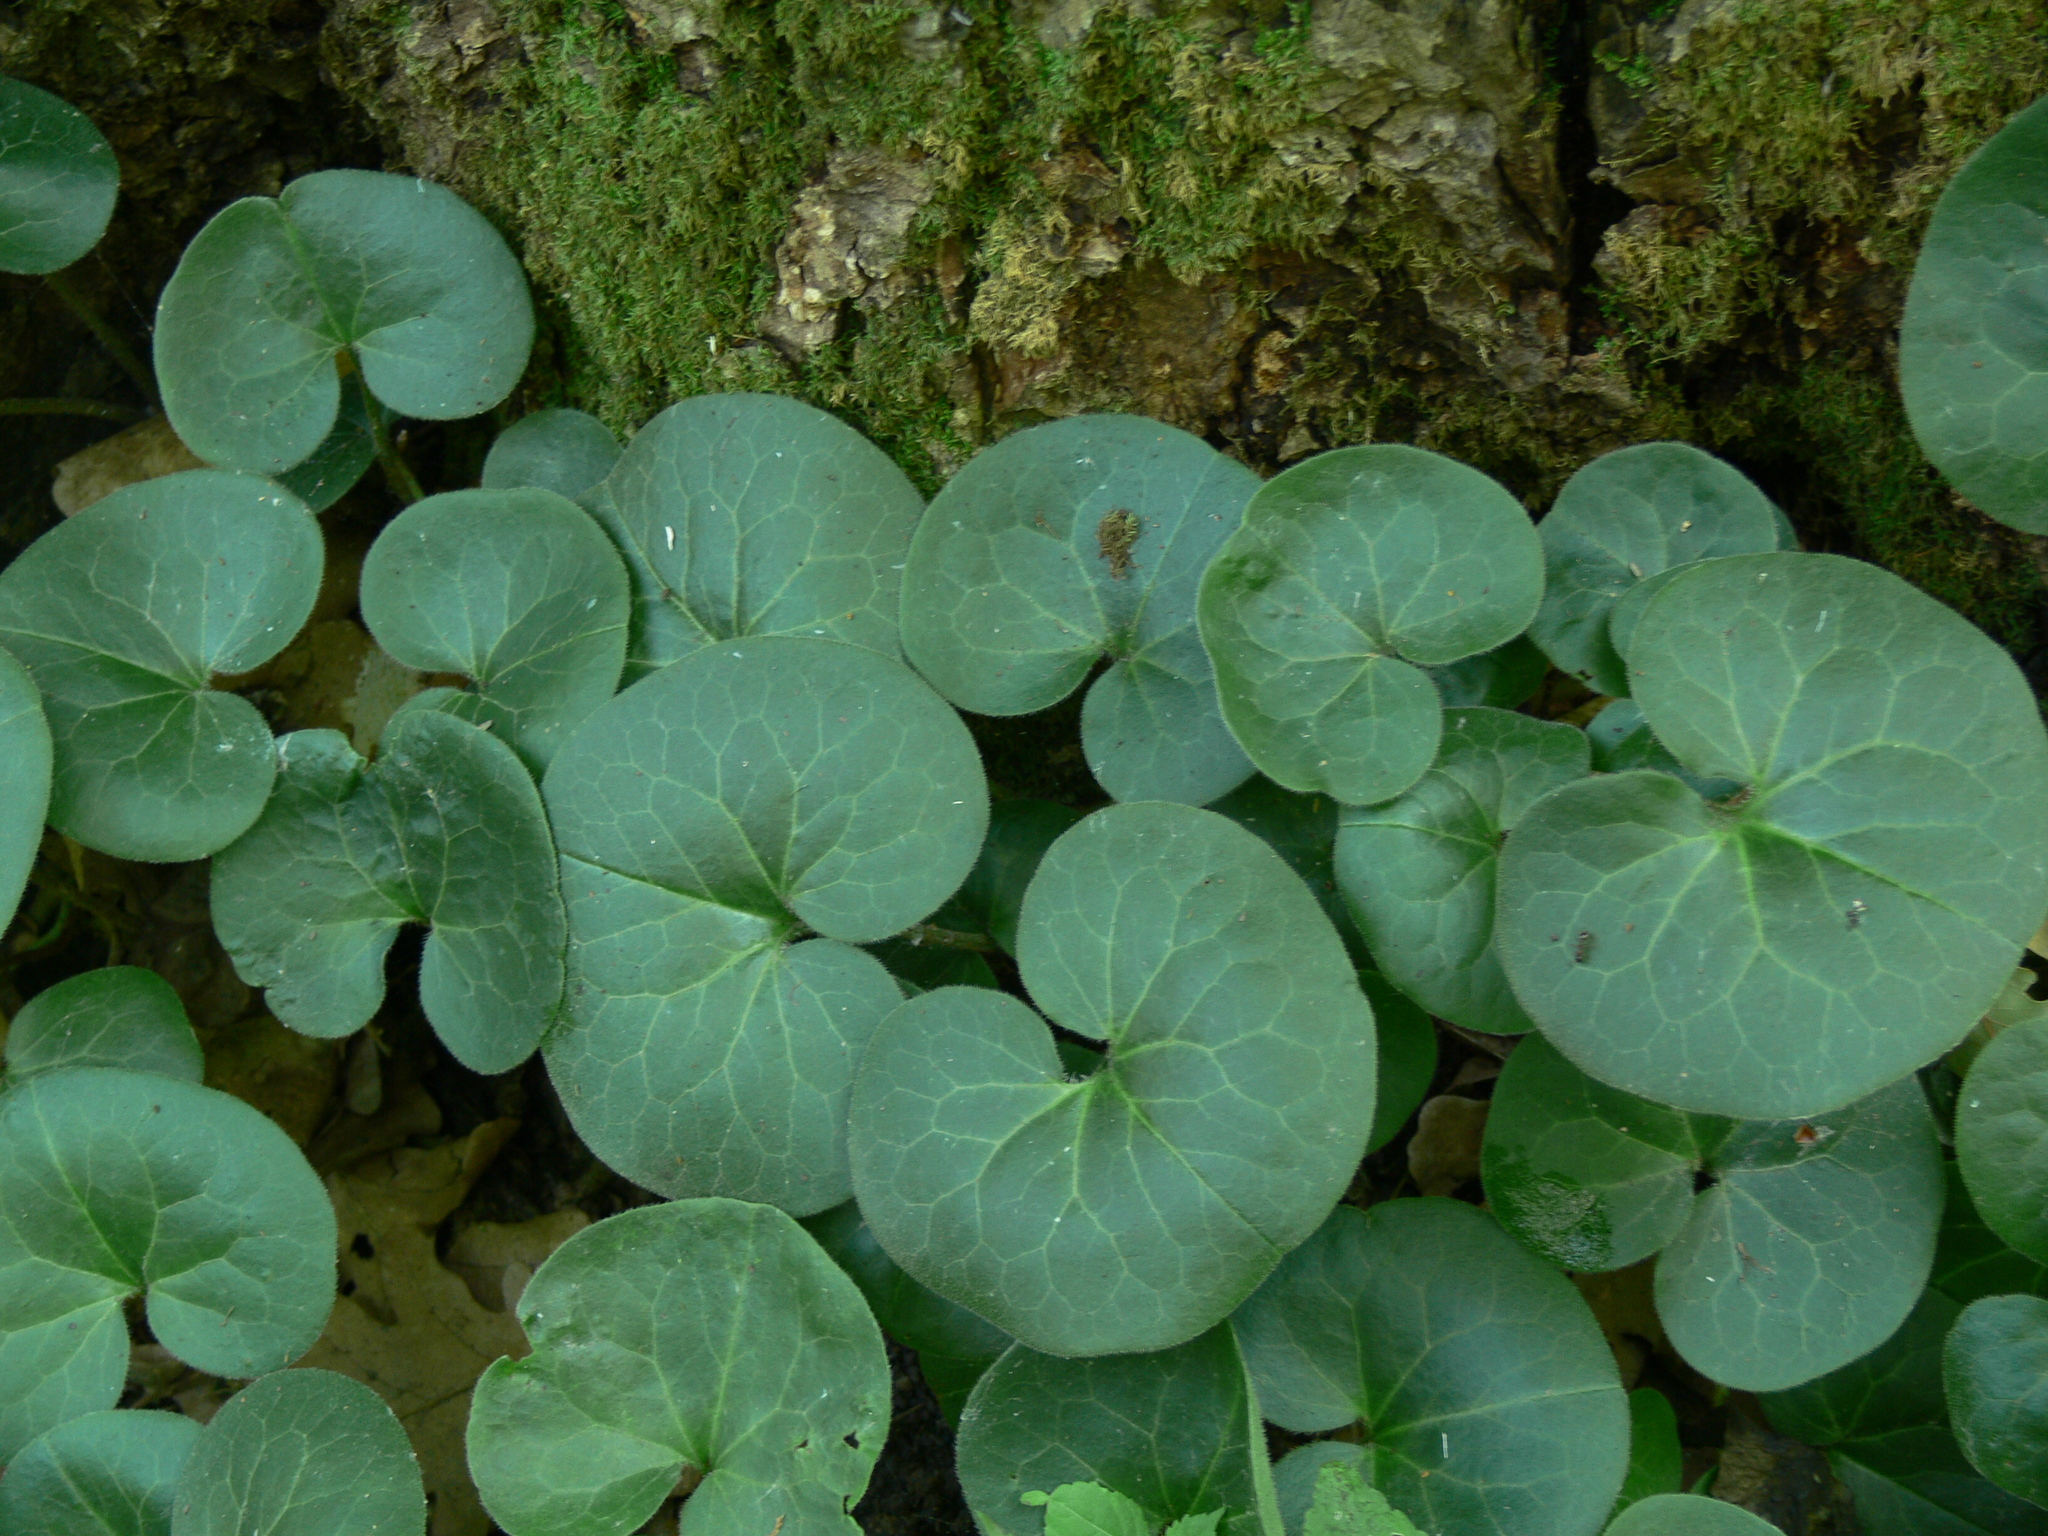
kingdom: Plantae
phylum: Tracheophyta
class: Magnoliopsida
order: Piperales
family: Aristolochiaceae
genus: Asarum
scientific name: Asarum europaeum
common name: Asarabacca
